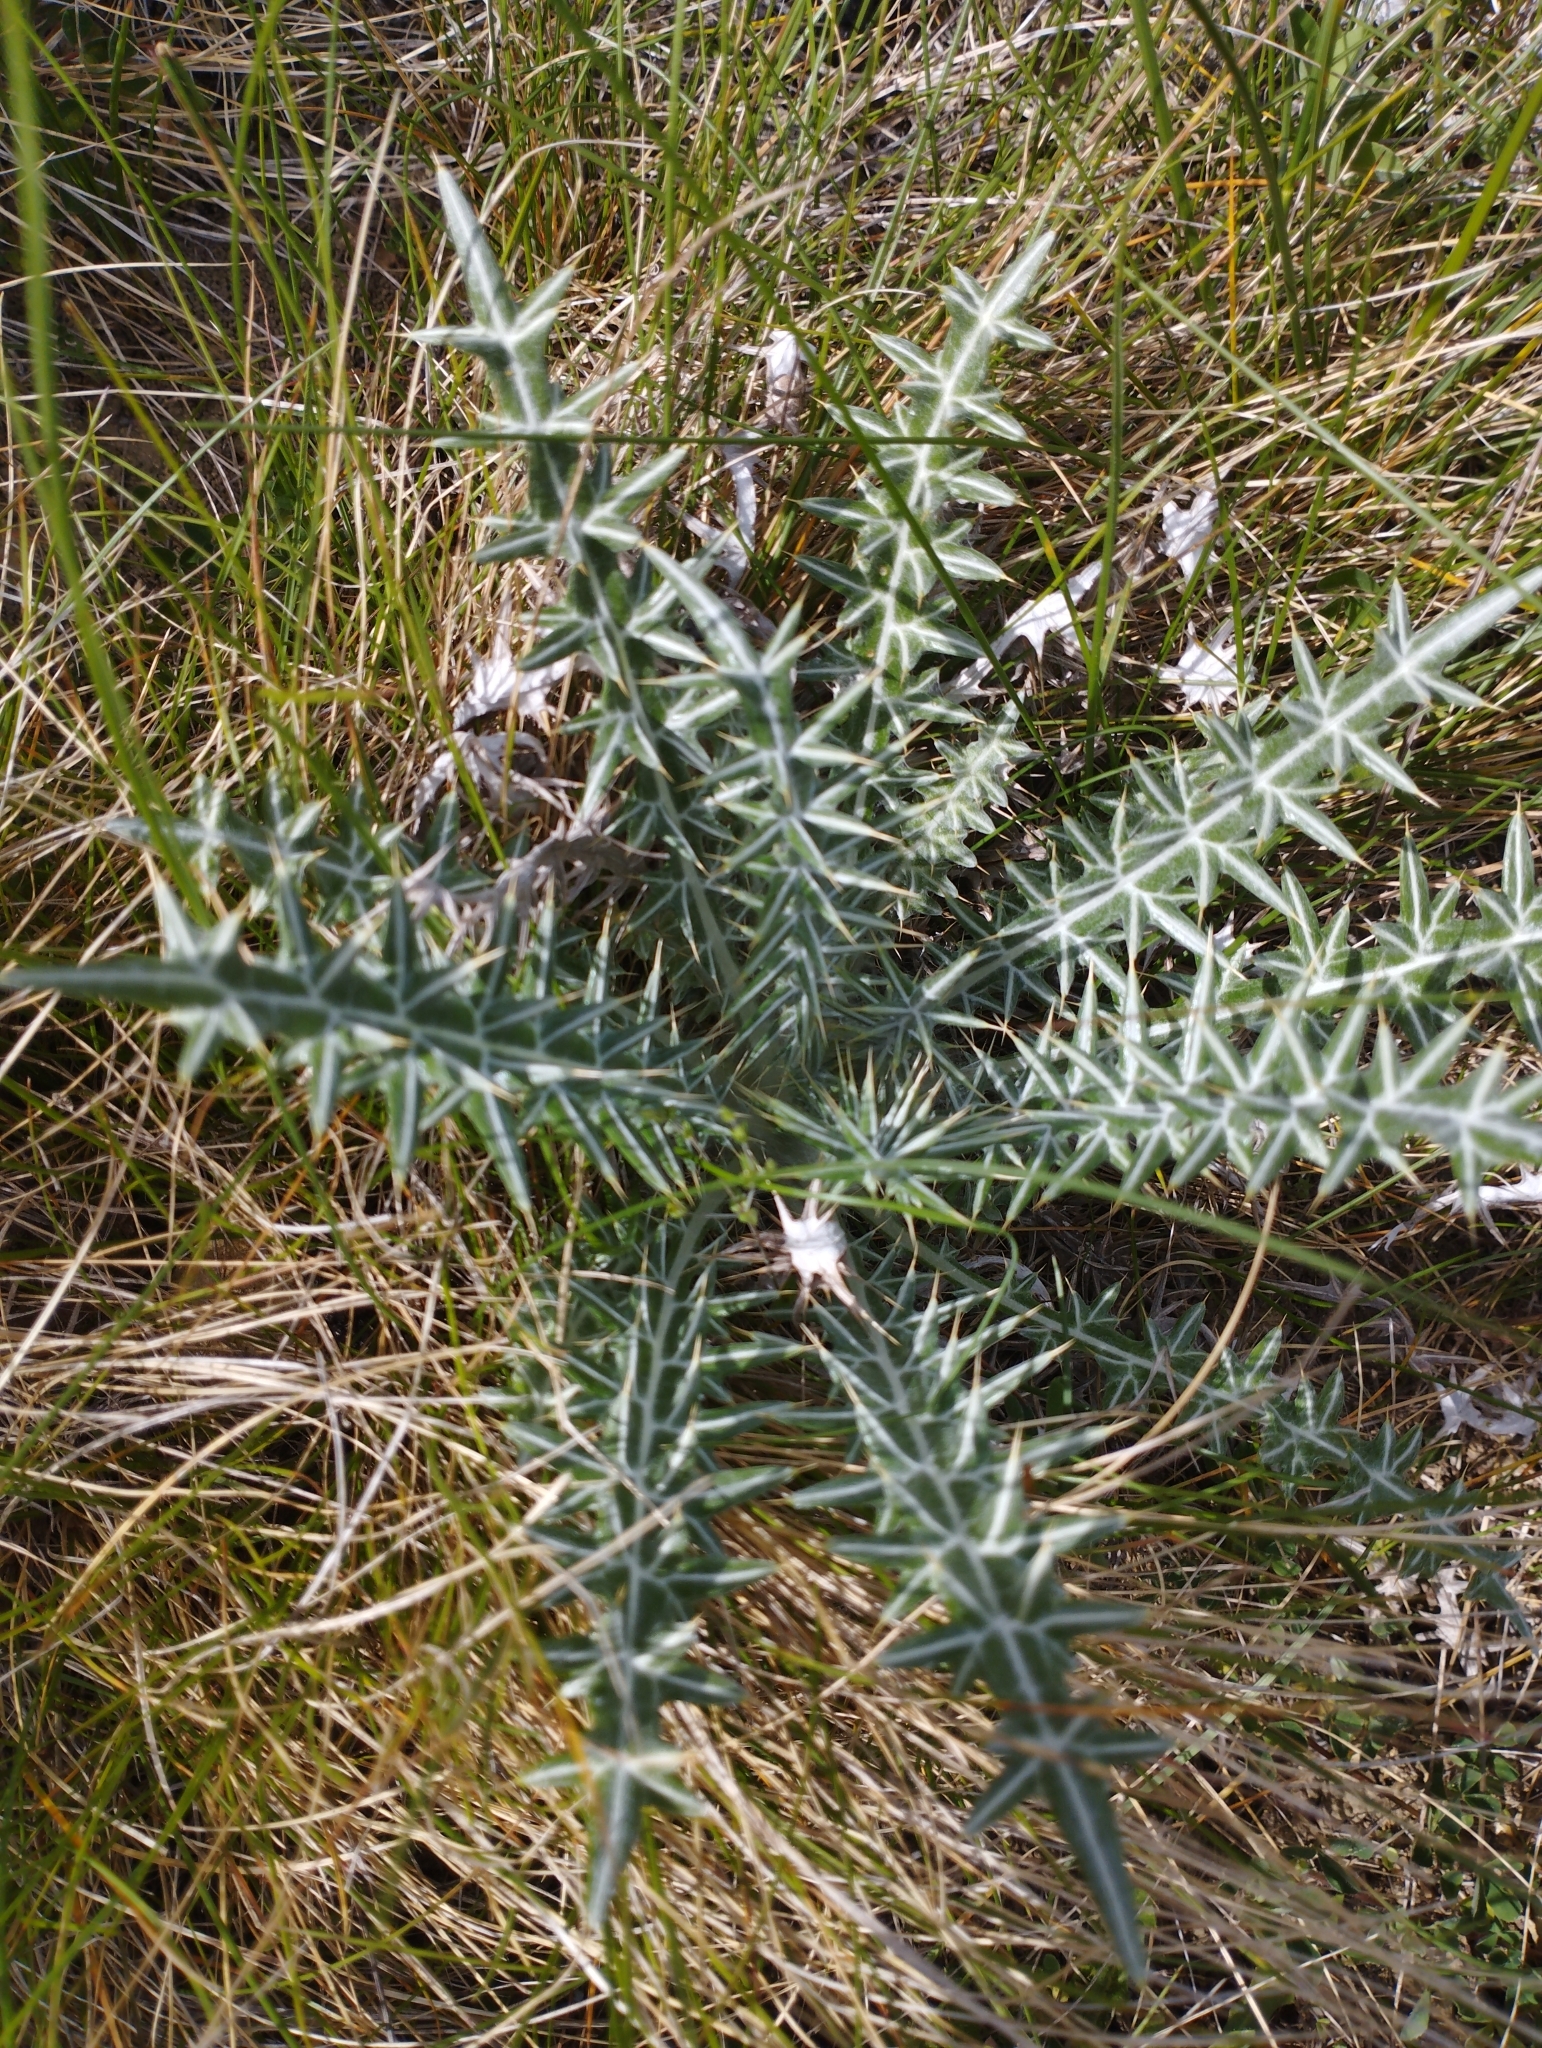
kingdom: Plantae
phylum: Tracheophyta
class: Magnoliopsida
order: Asterales
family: Asteraceae
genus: Ptilostemon
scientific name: Ptilostemon afer
